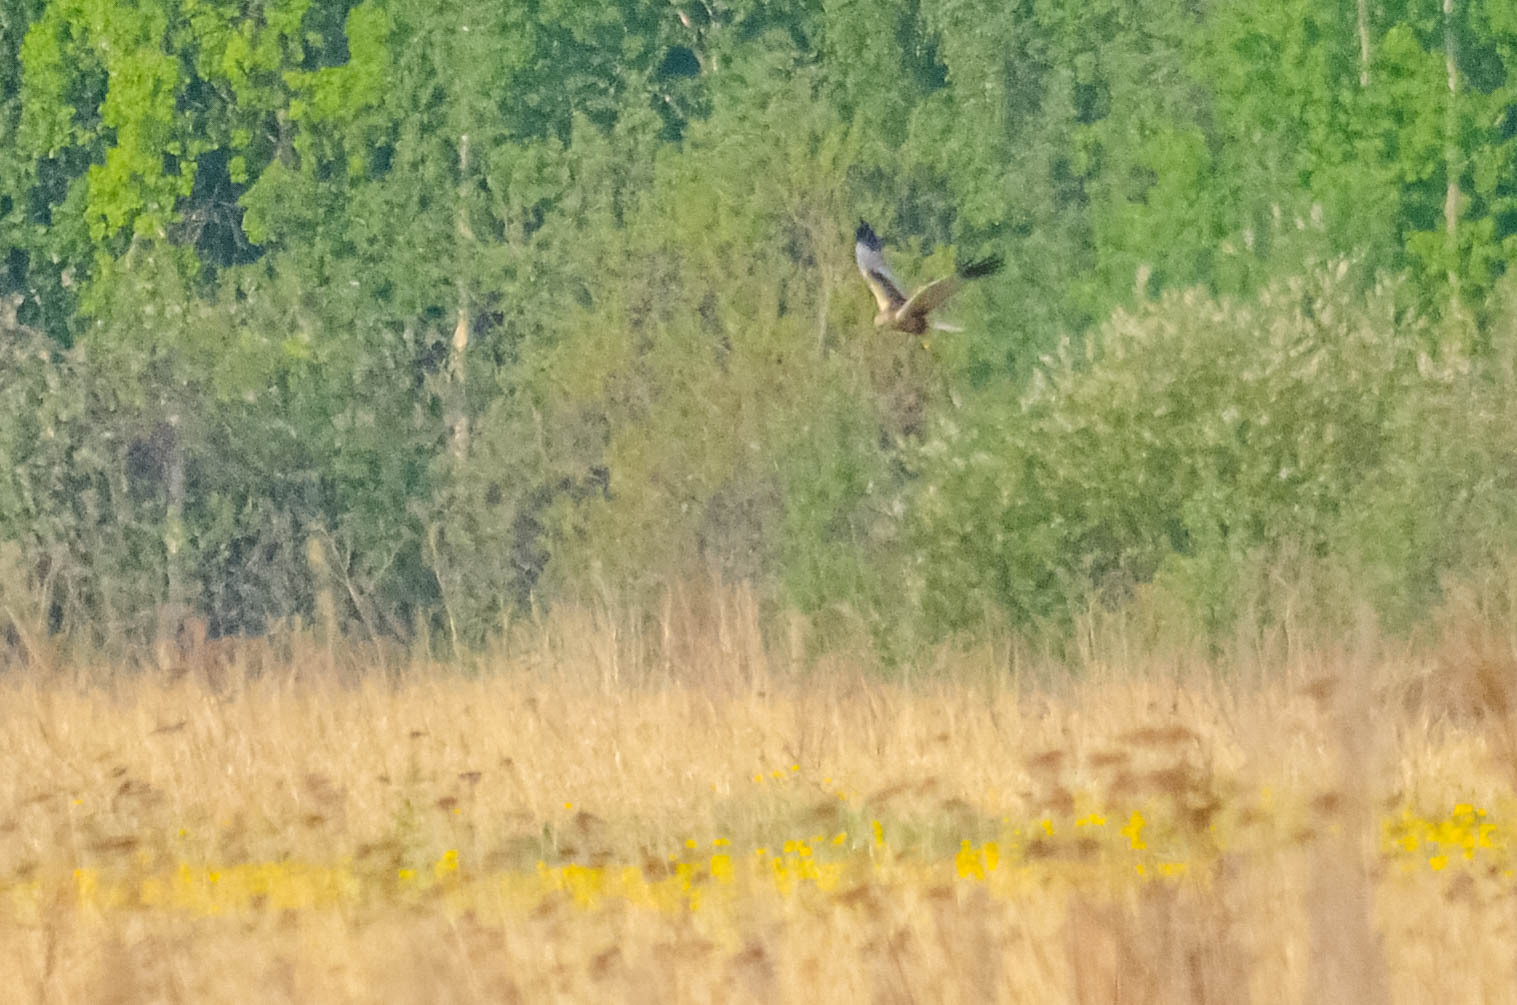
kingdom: Animalia
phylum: Chordata
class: Aves
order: Accipitriformes
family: Accipitridae
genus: Circus
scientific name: Circus aeruginosus
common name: Western marsh harrier
